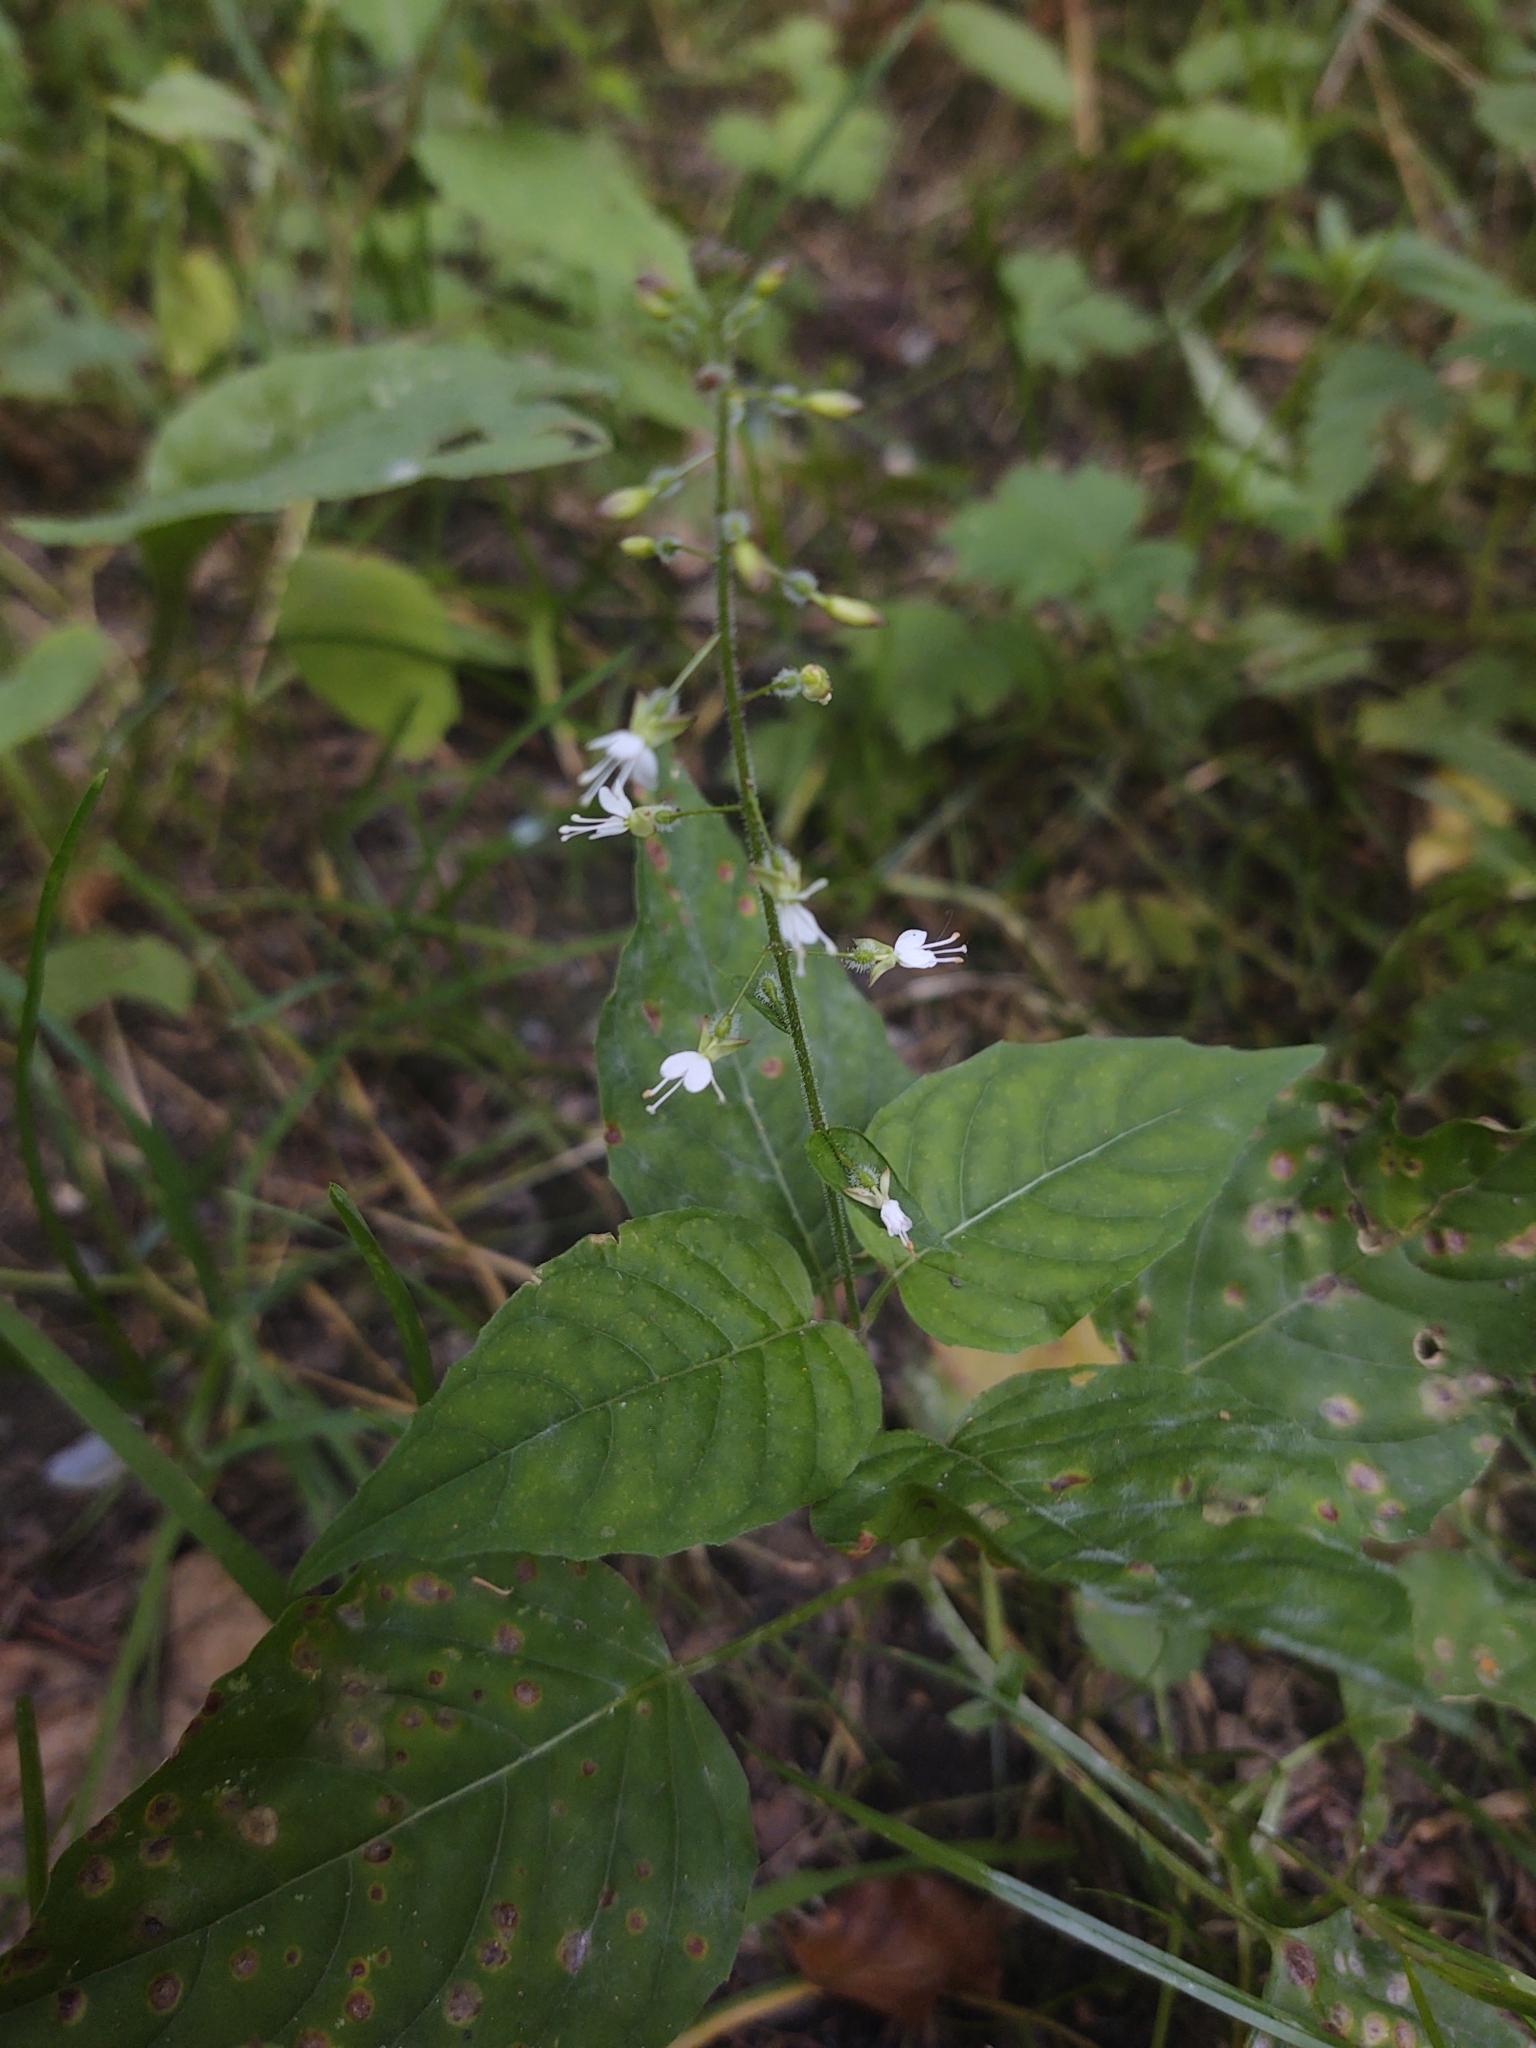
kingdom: Plantae
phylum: Tracheophyta
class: Magnoliopsida
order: Myrtales
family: Onagraceae
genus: Circaea
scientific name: Circaea lutetiana
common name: Enchanter's-nightshade
